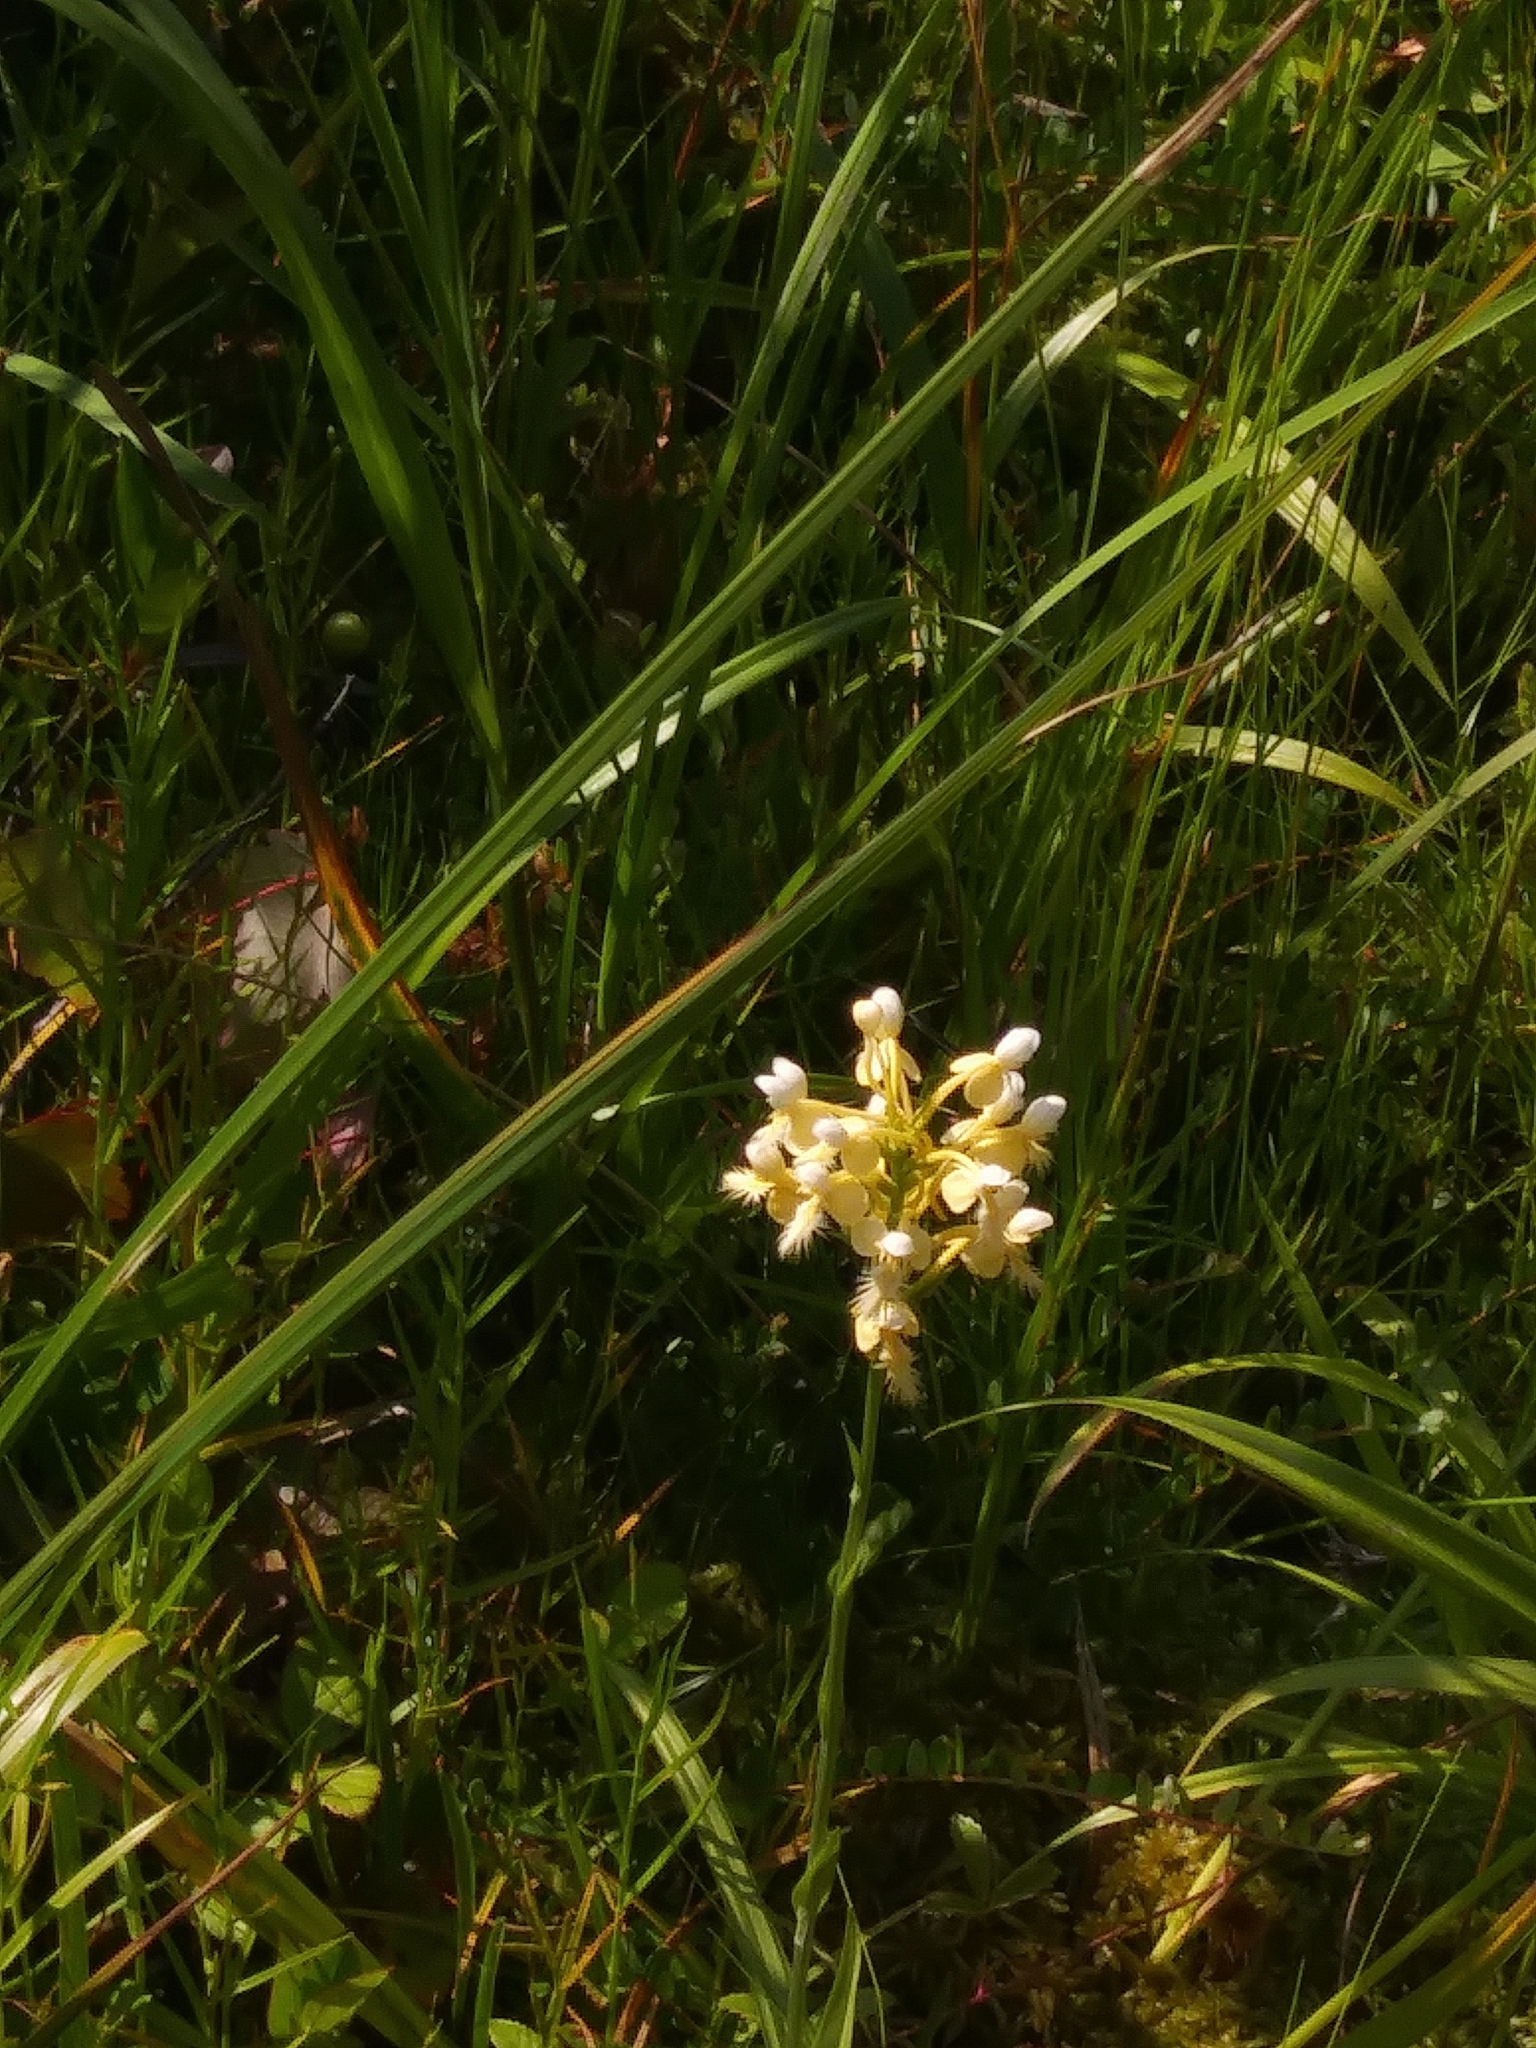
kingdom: Plantae
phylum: Tracheophyta
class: Liliopsida
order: Asparagales
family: Orchidaceae
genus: Platanthera
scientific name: Platanthera bicolor
